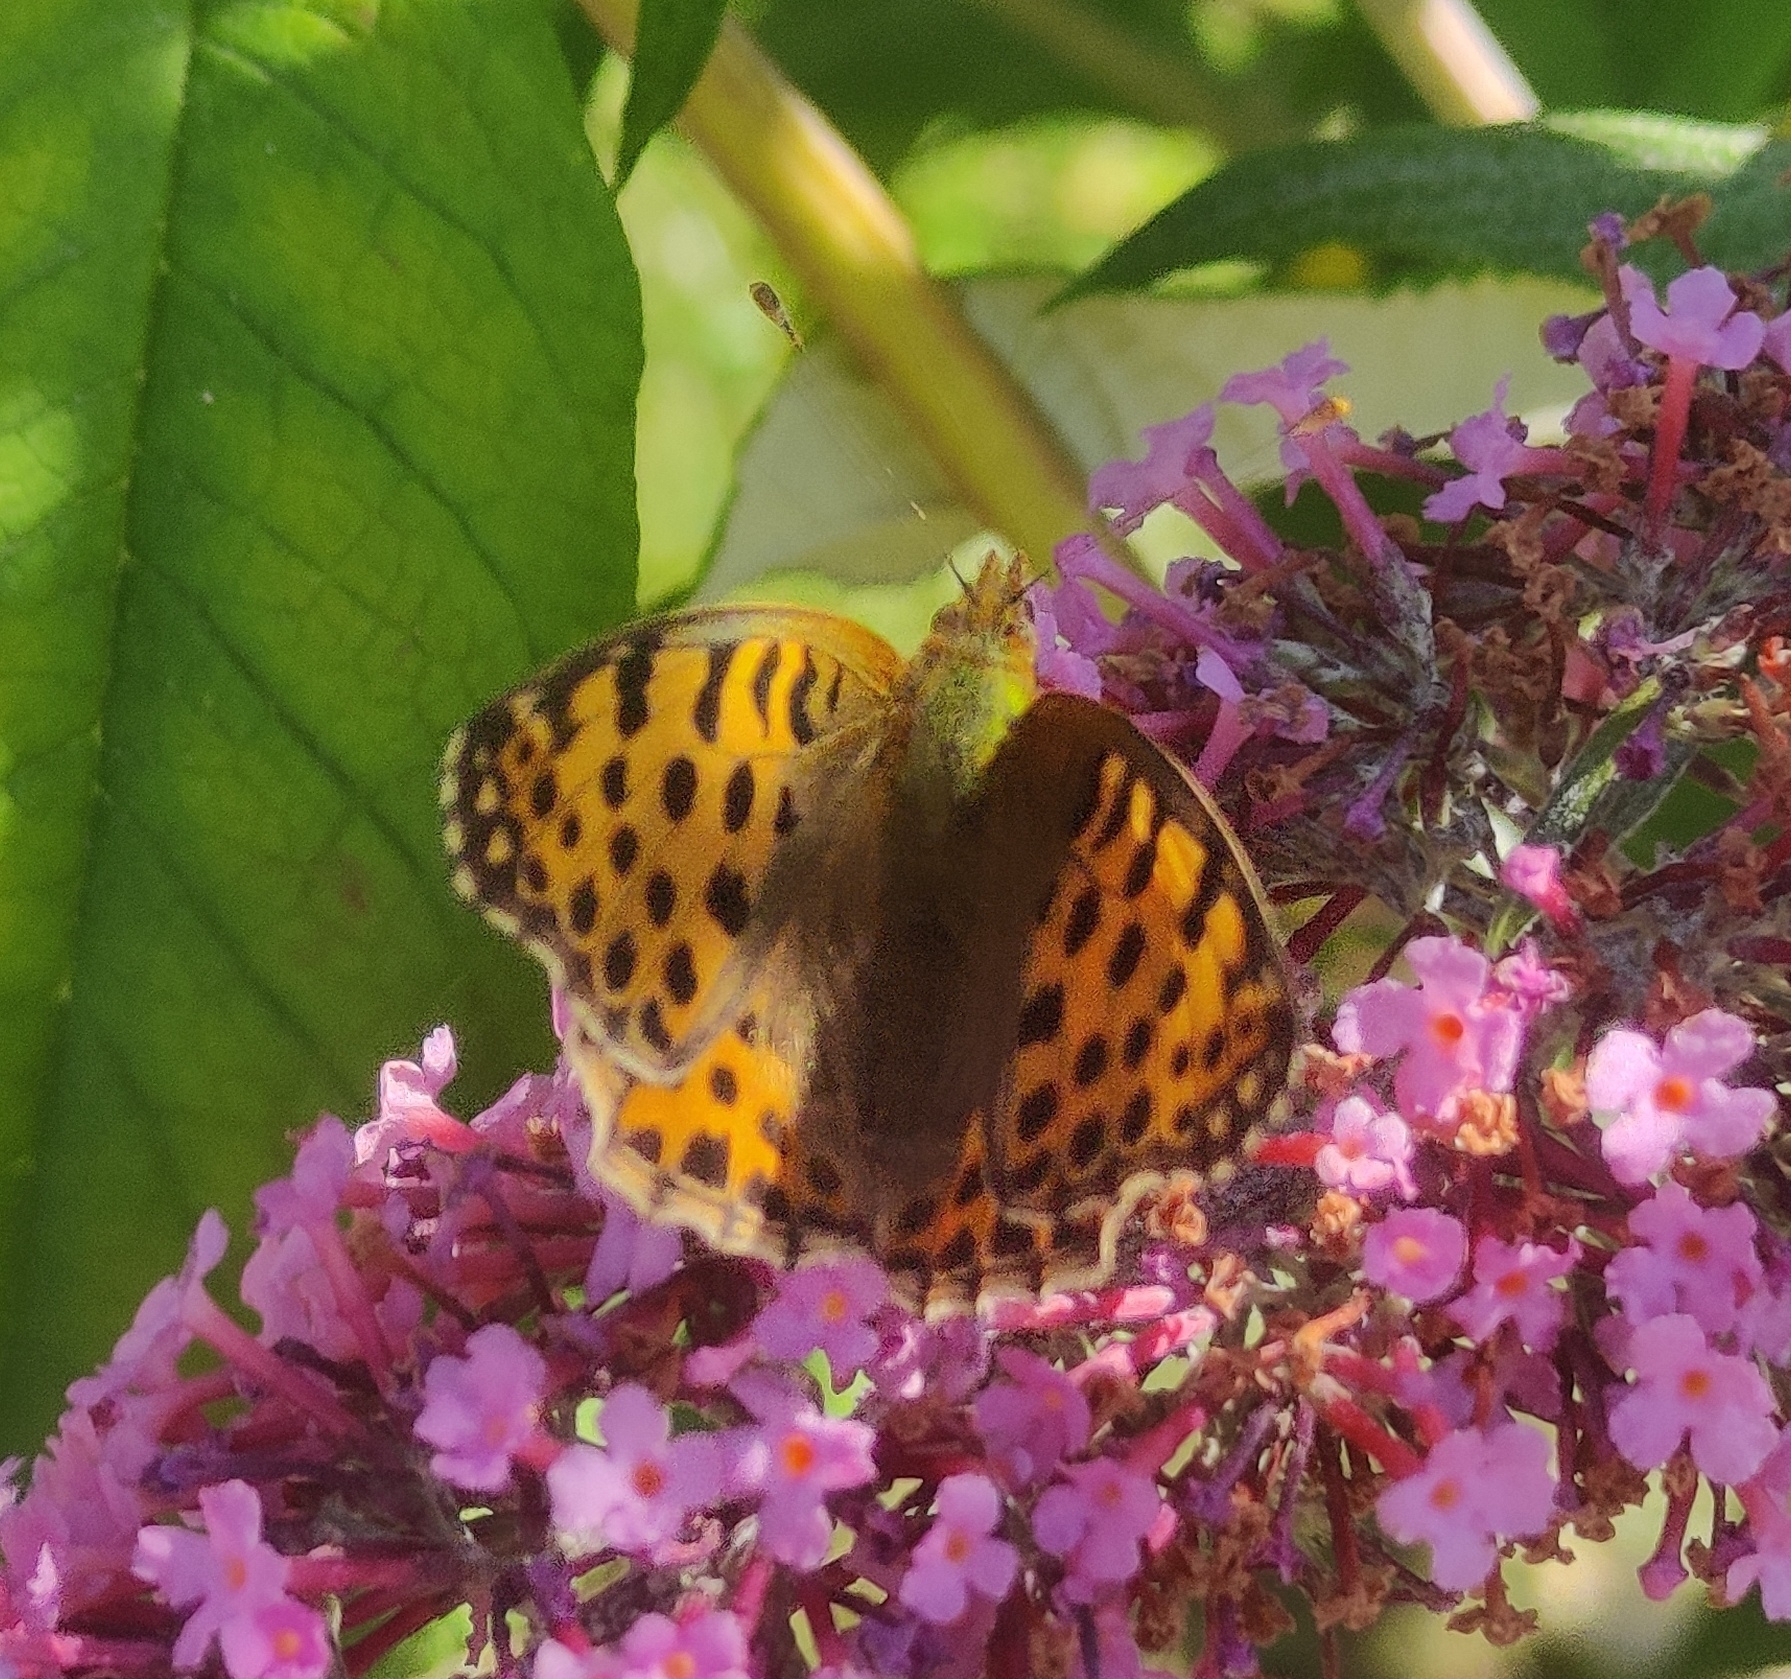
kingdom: Animalia
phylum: Arthropoda
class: Insecta
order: Lepidoptera
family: Nymphalidae
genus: Issoria
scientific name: Issoria lathonia
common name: Queen of spain fritillary
